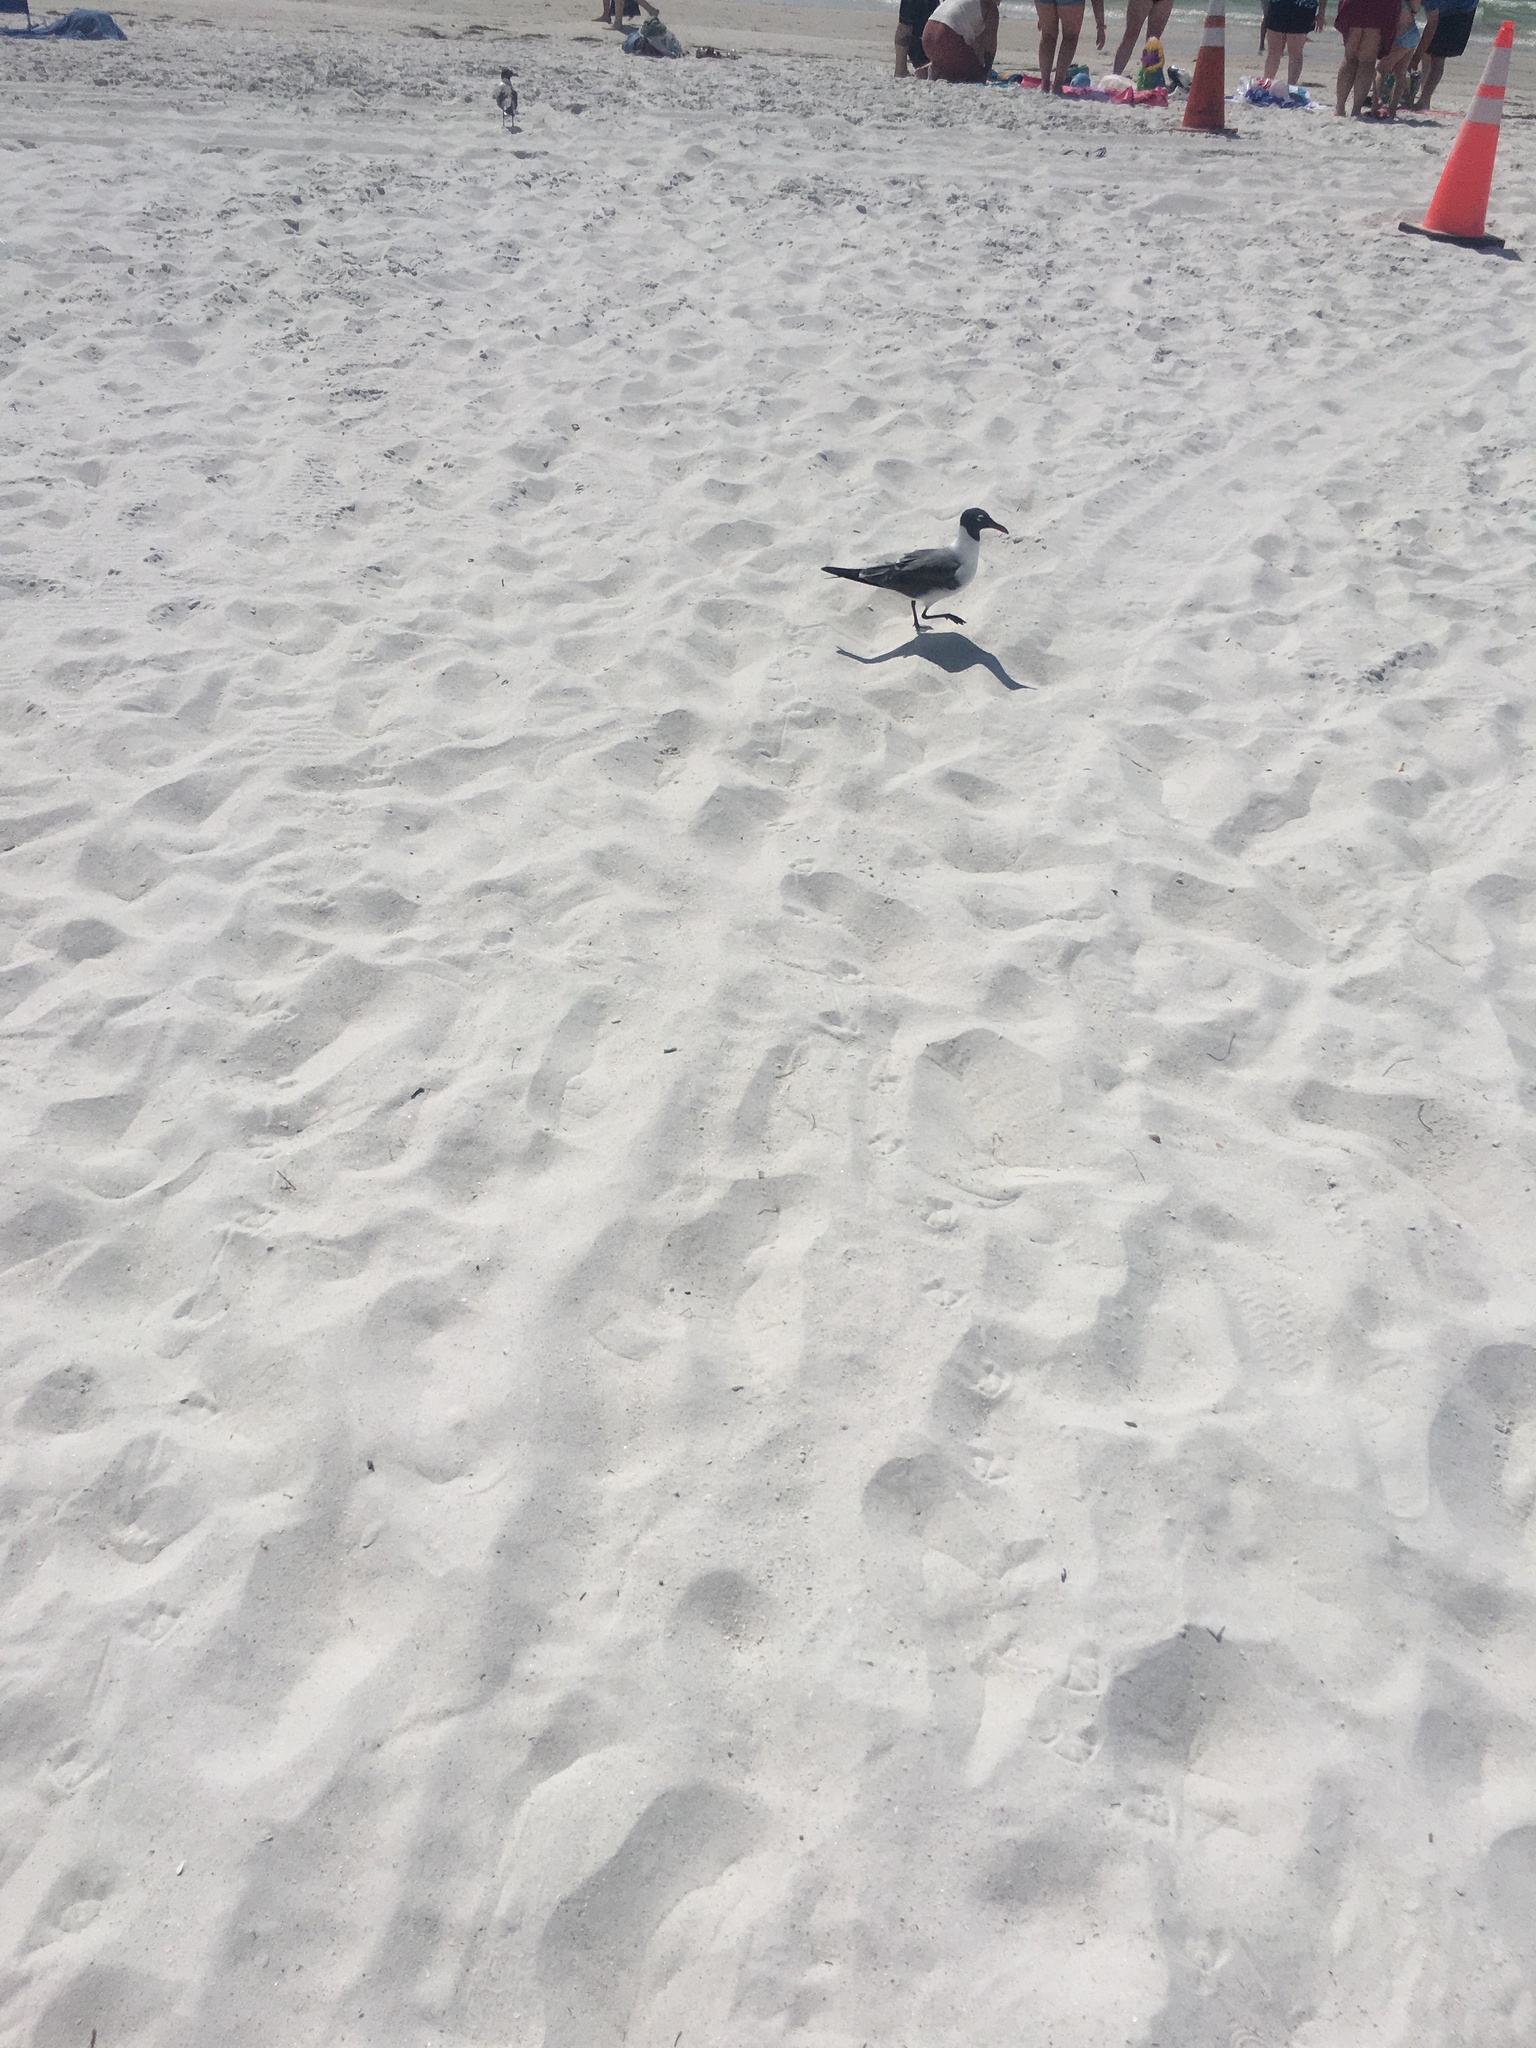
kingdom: Animalia
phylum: Chordata
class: Aves
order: Charadriiformes
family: Laridae
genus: Leucophaeus
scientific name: Leucophaeus atricilla
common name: Laughing gull
